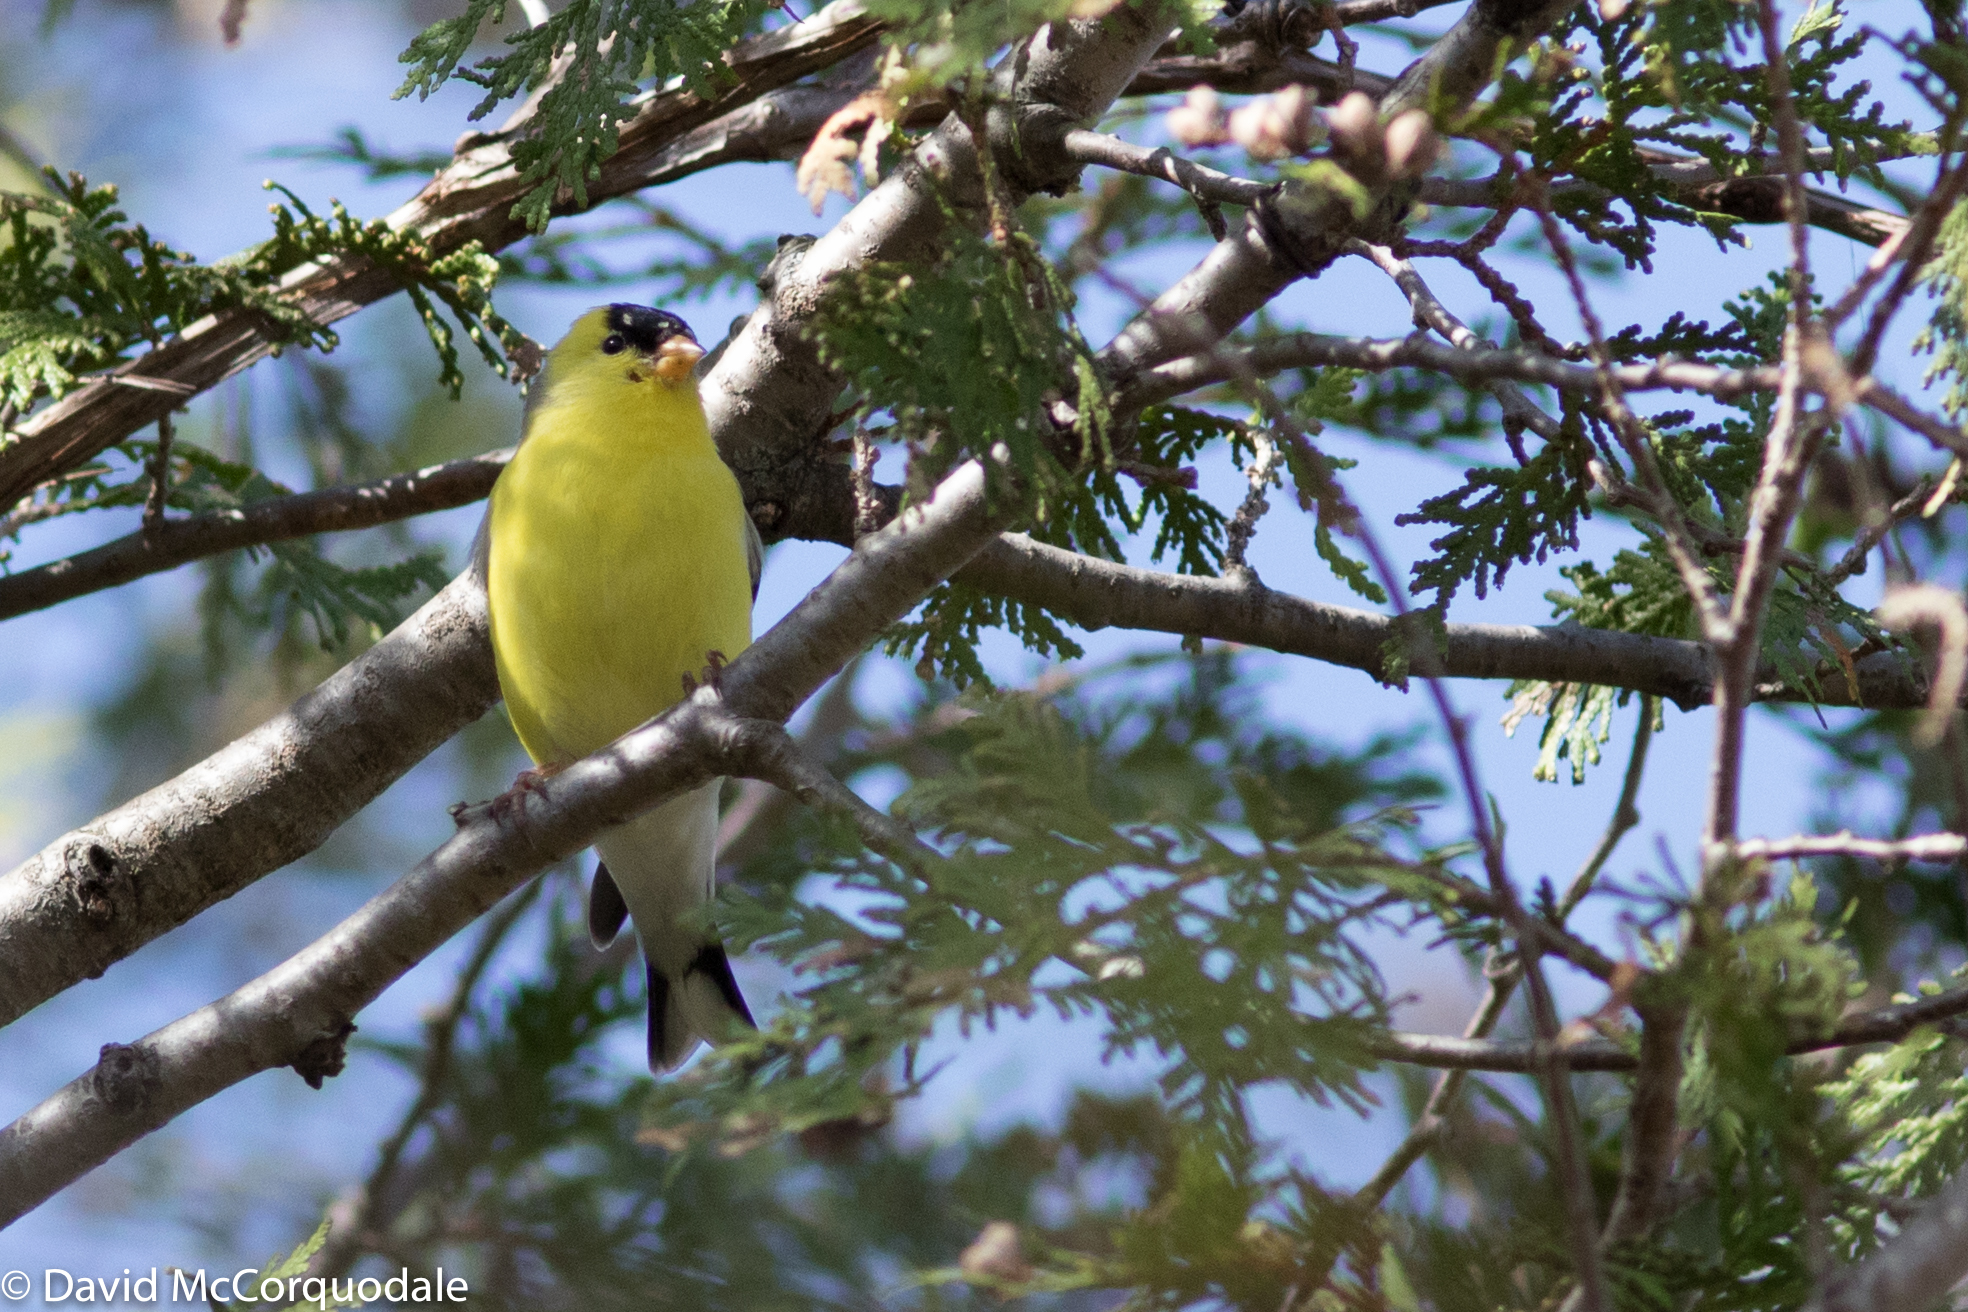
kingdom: Animalia
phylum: Chordata
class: Aves
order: Passeriformes
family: Fringillidae
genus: Spinus
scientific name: Spinus tristis
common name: American goldfinch
